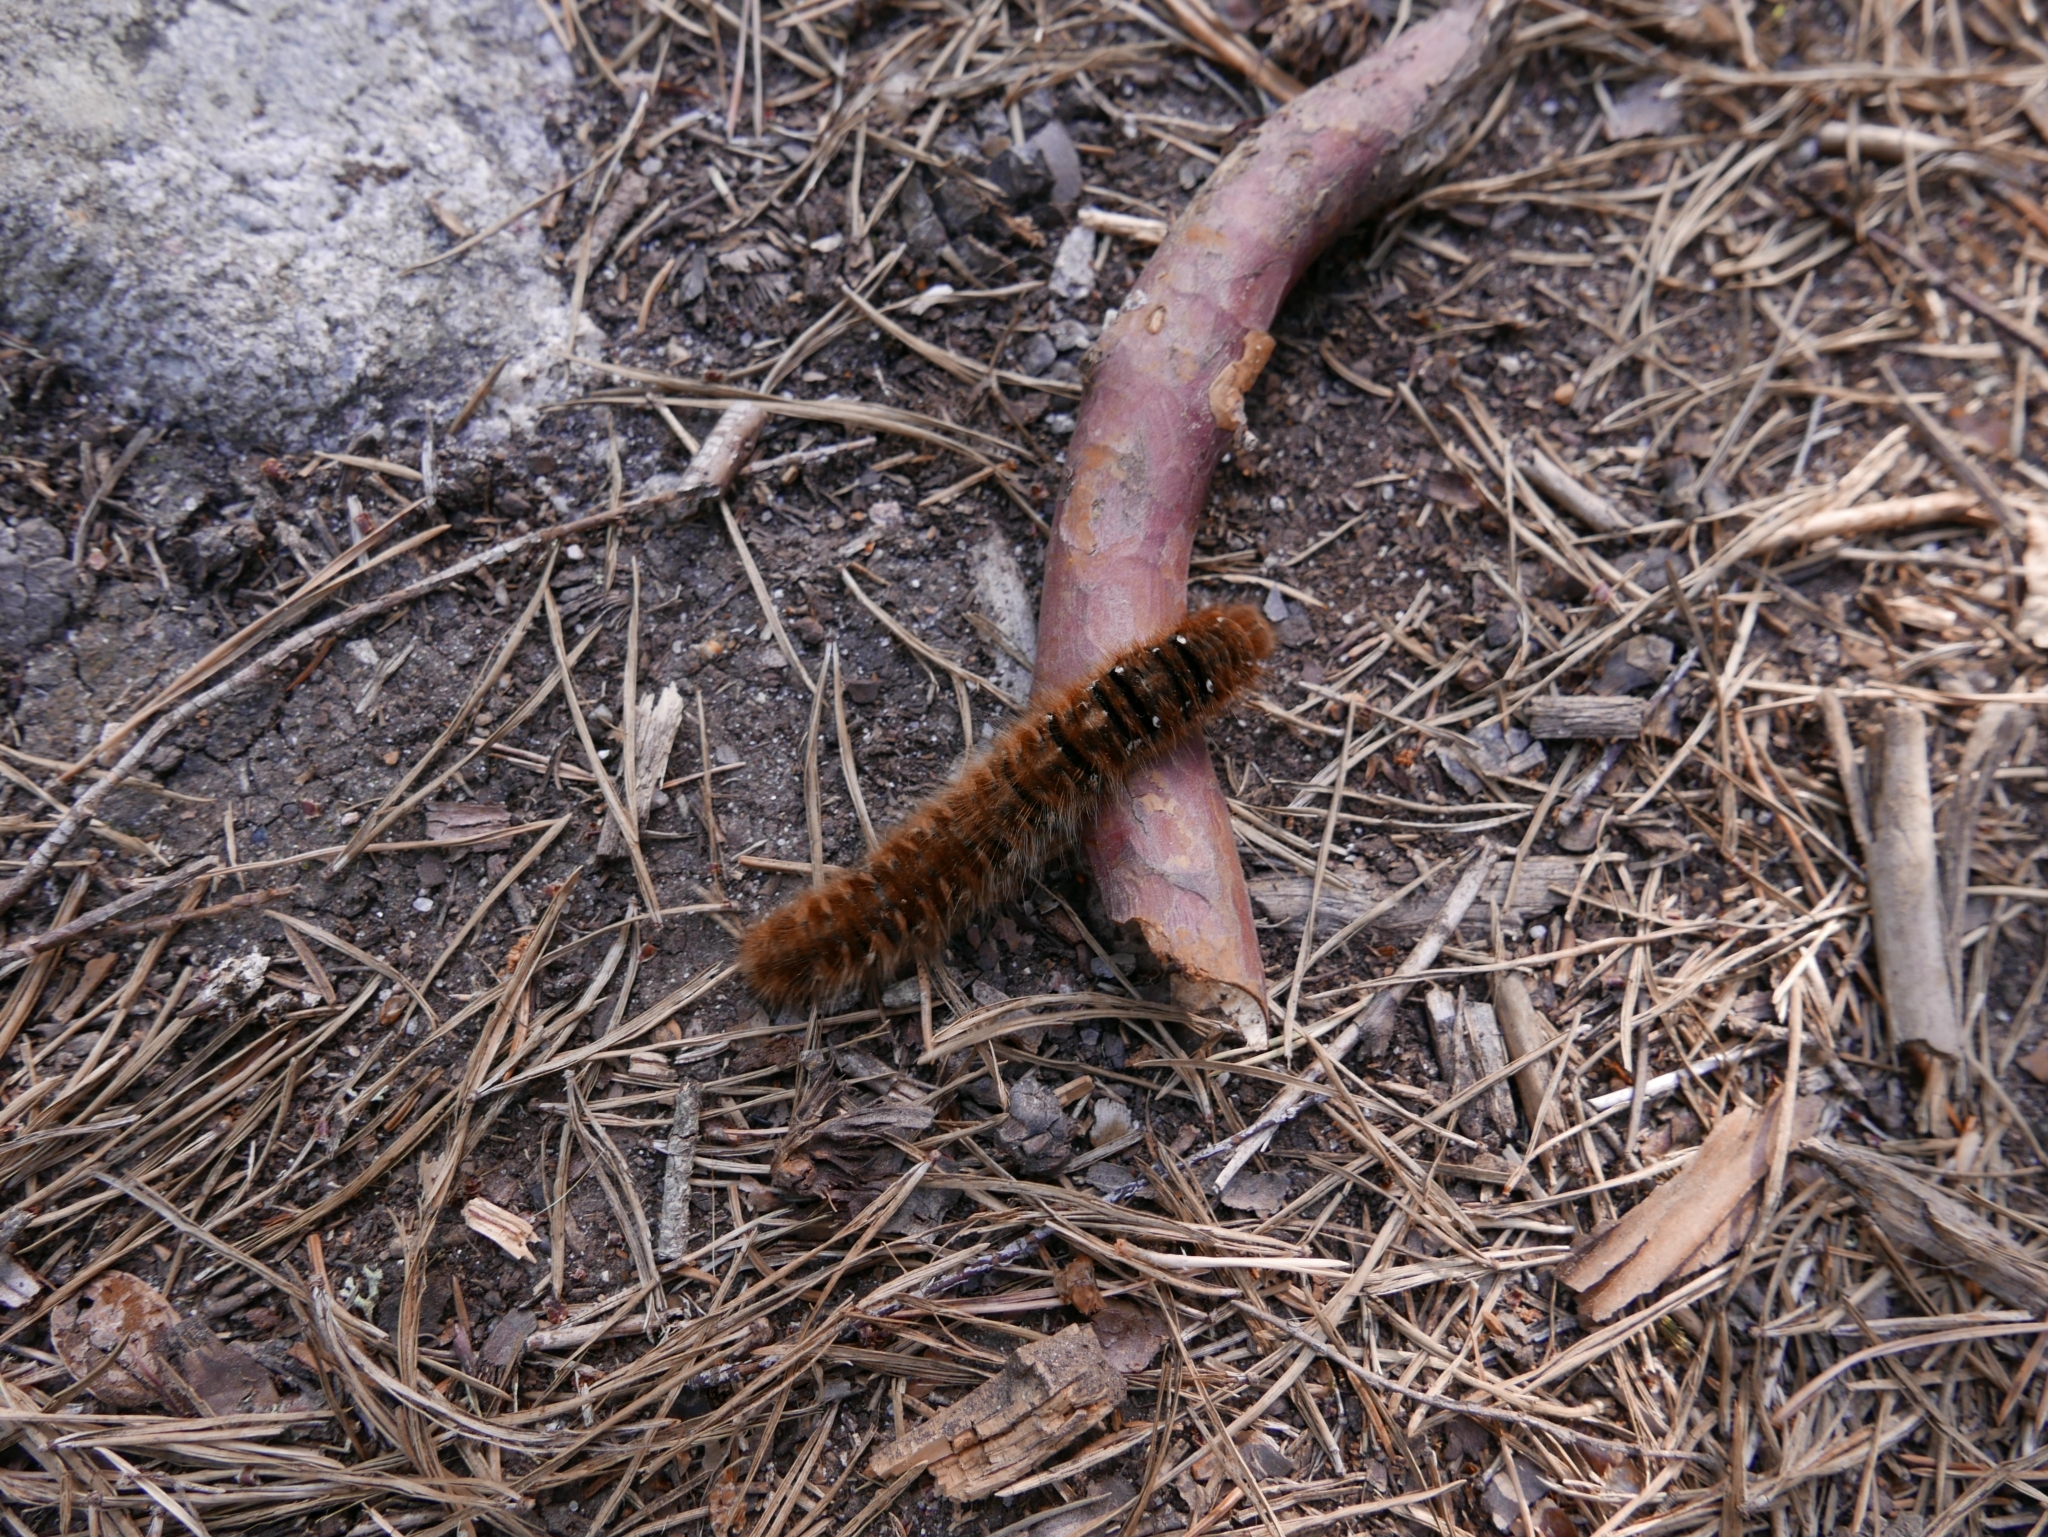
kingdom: Animalia
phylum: Arthropoda
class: Insecta
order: Lepidoptera
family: Lasiocampidae
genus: Lasiocampa
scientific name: Lasiocampa quercus
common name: Oak eggar
